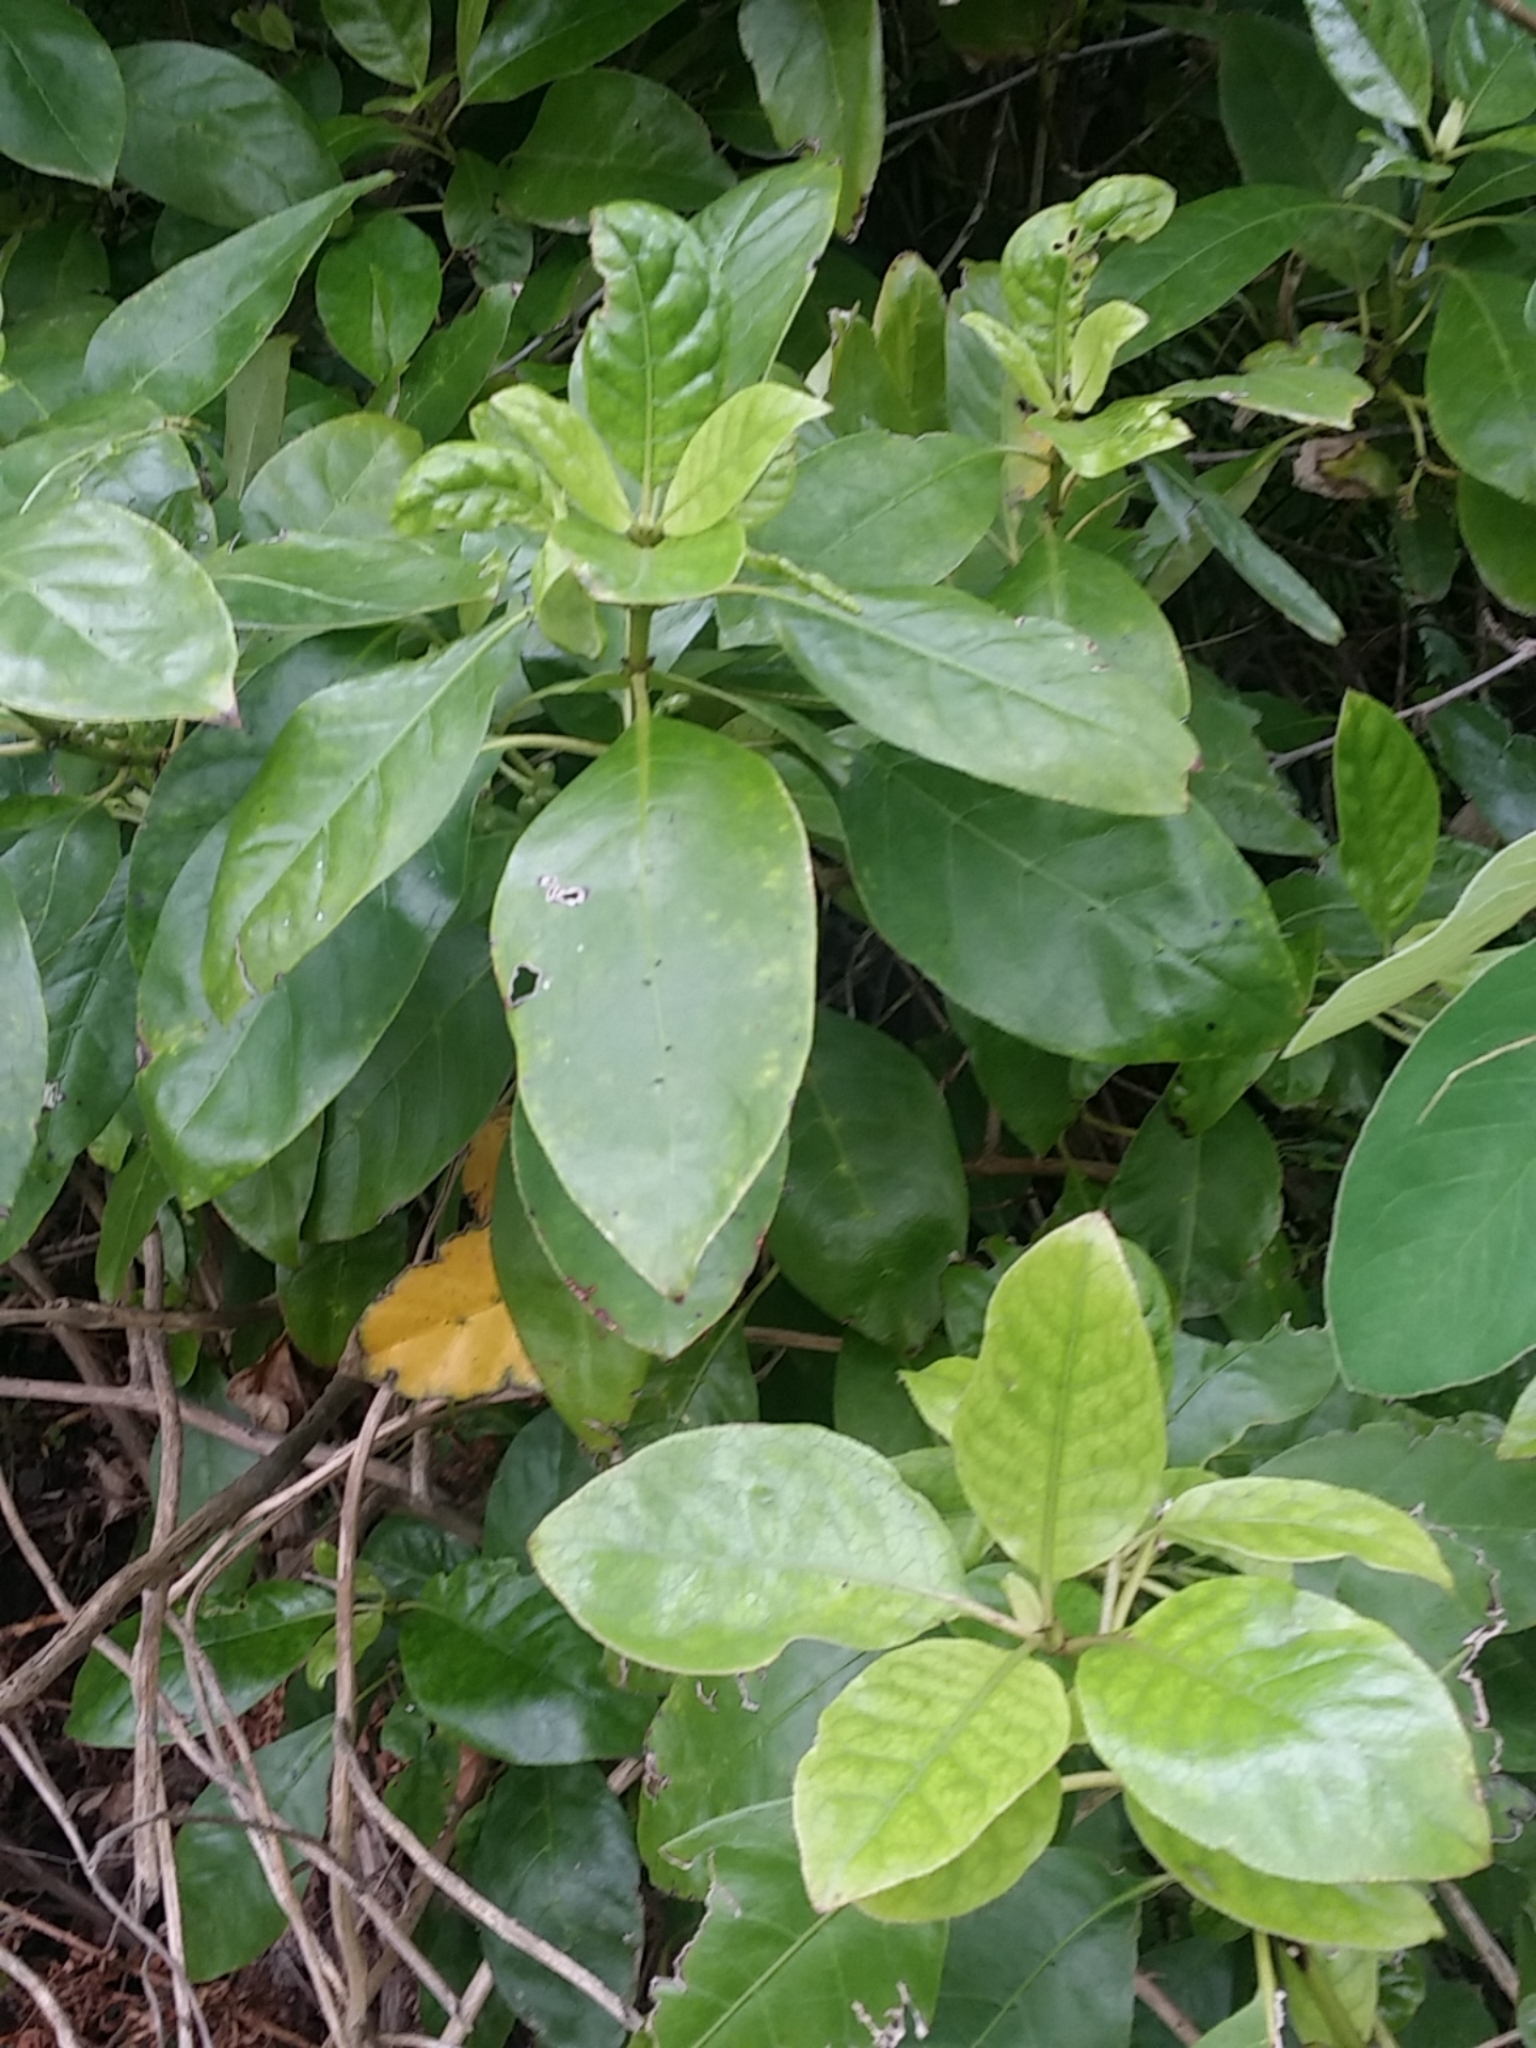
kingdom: Plantae
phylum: Tracheophyta
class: Magnoliopsida
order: Gentianales
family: Rubiaceae
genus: Coprosma
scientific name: Coprosma autumnalis
